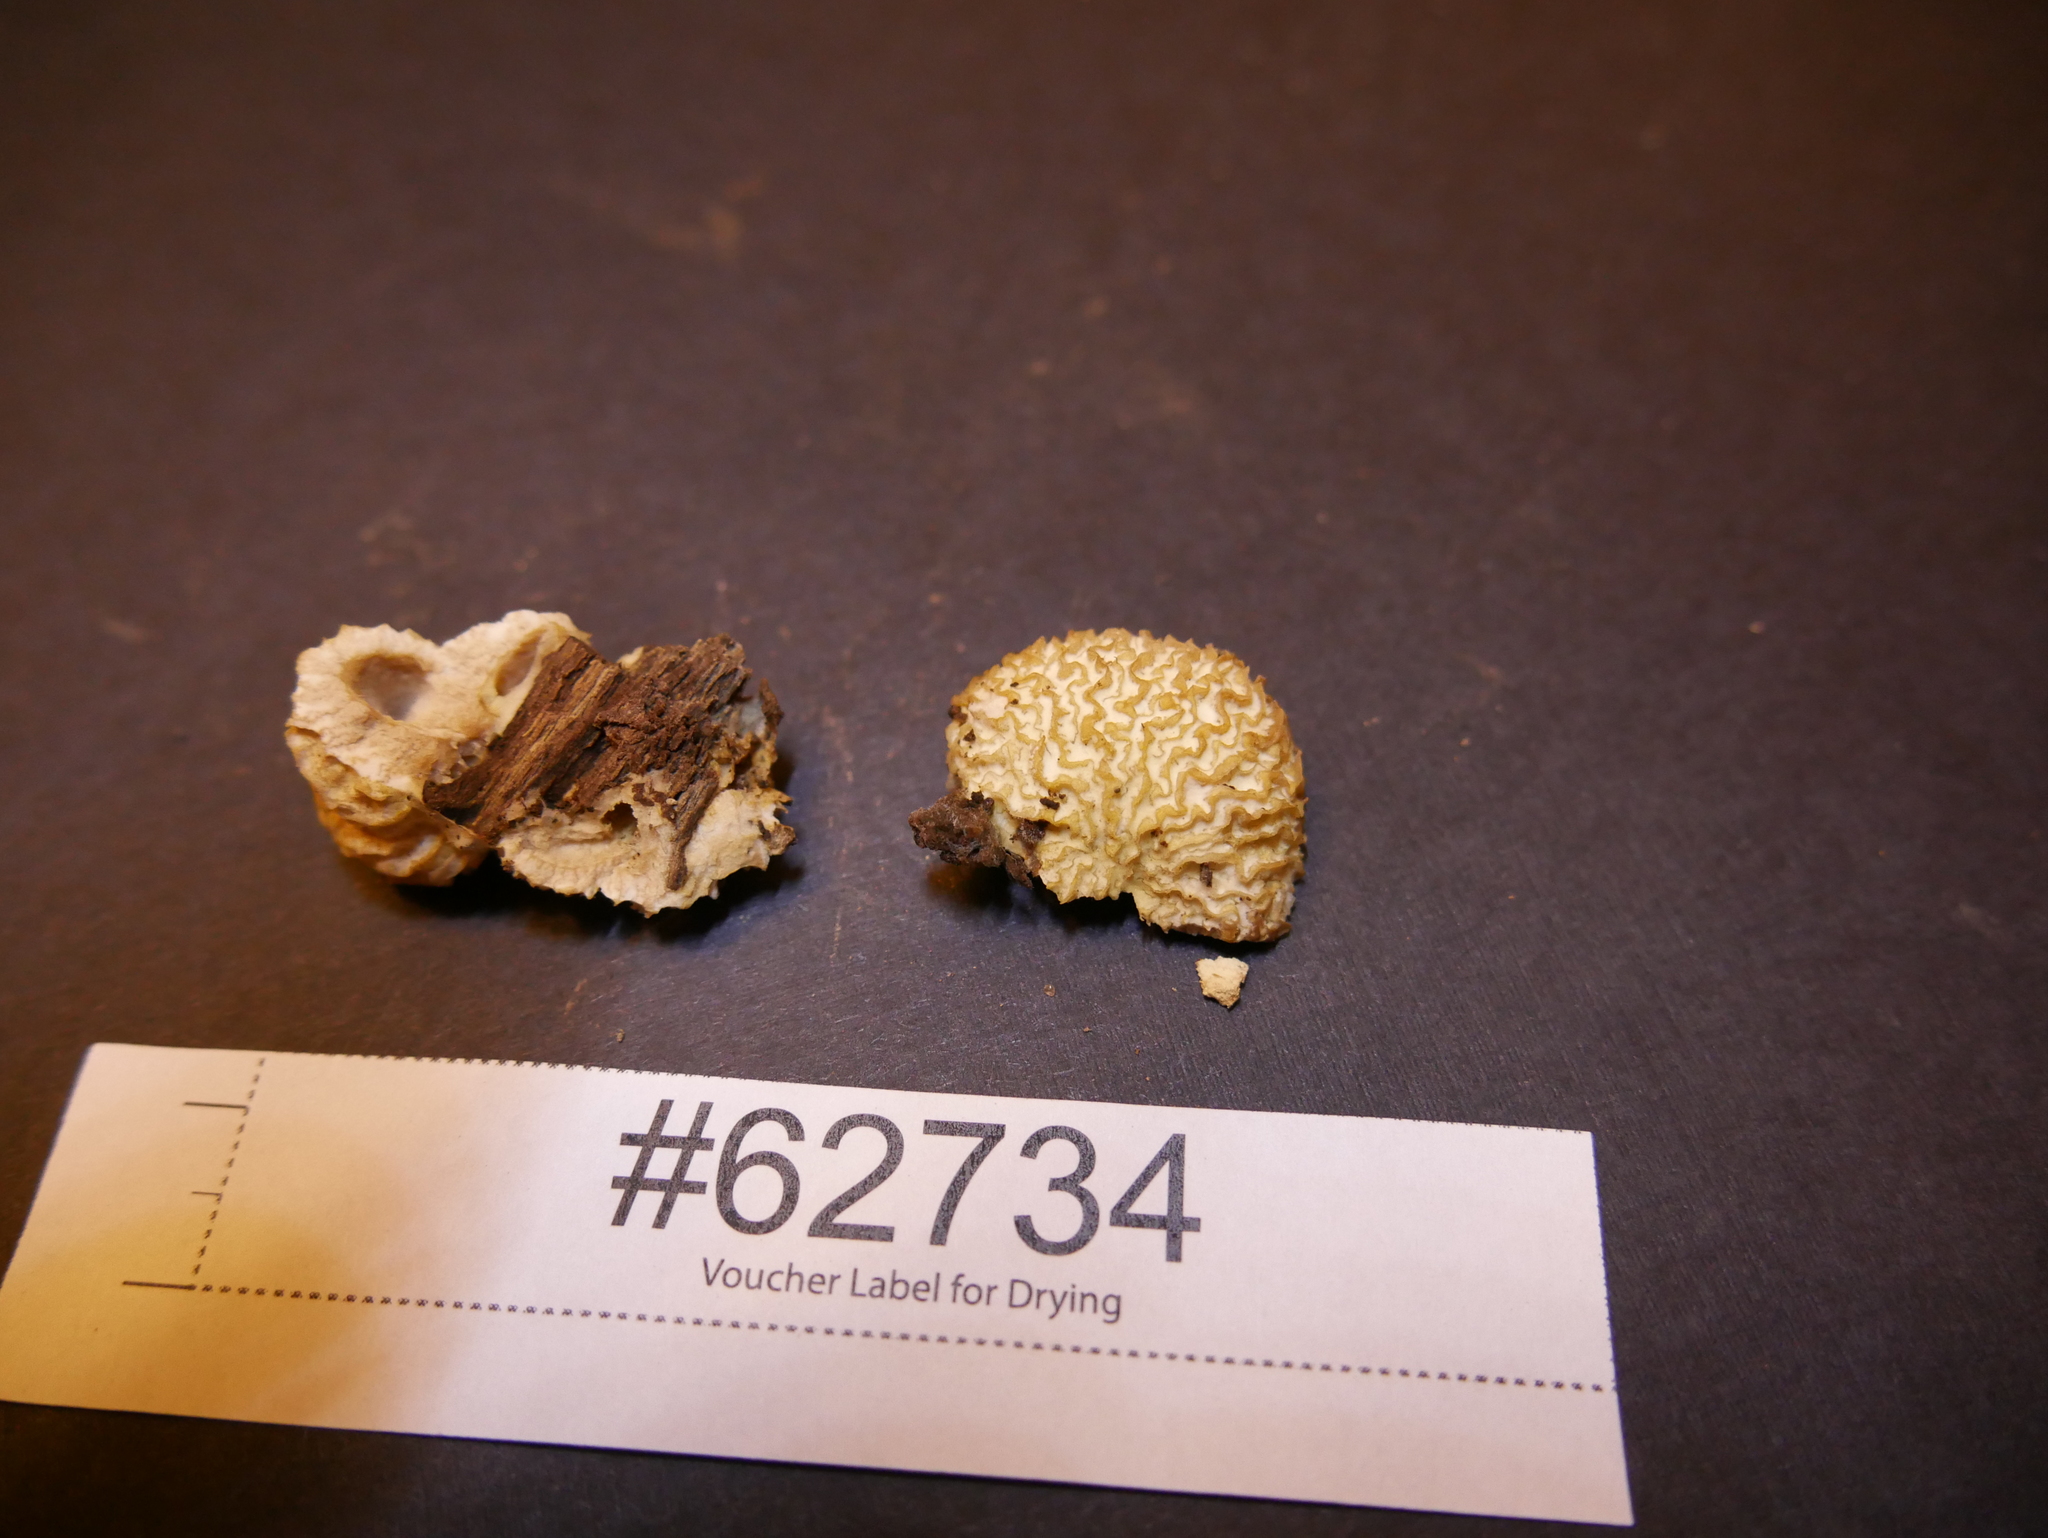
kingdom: Fungi
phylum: Ascomycota
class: Sordariomycetes
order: Hypocreales
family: Bionectriaceae
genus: Nectriopsis
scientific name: Nectriopsis tremellicola
